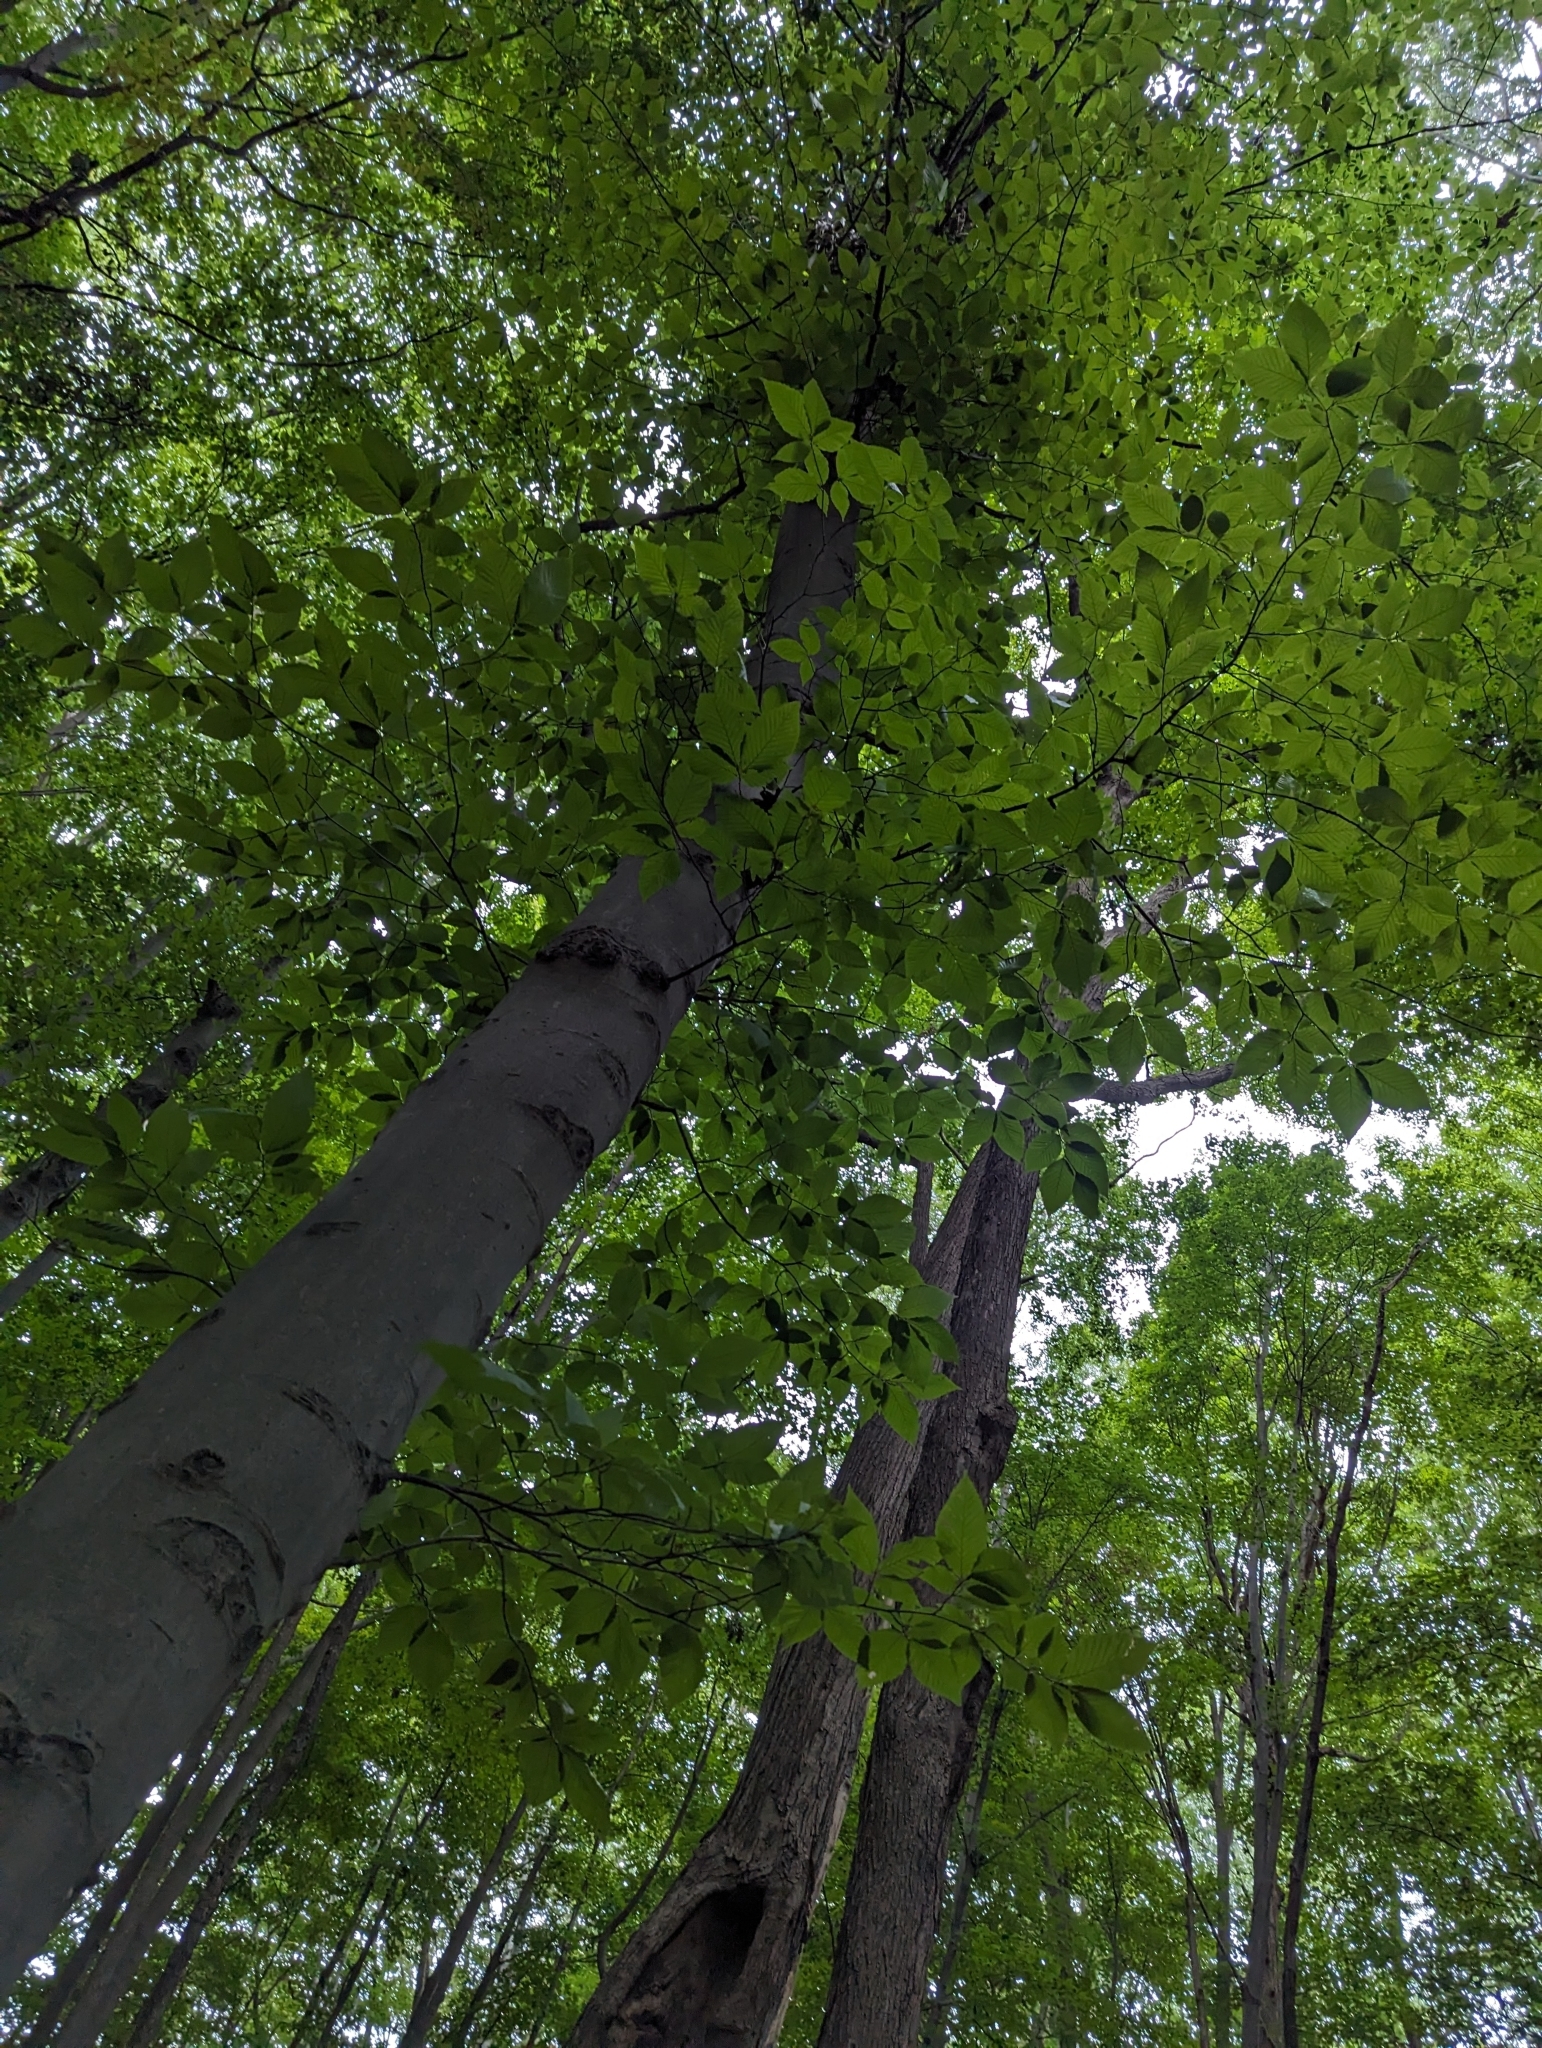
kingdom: Plantae
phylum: Tracheophyta
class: Magnoliopsida
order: Fagales
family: Fagaceae
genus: Fagus
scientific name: Fagus grandifolia
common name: American beech
